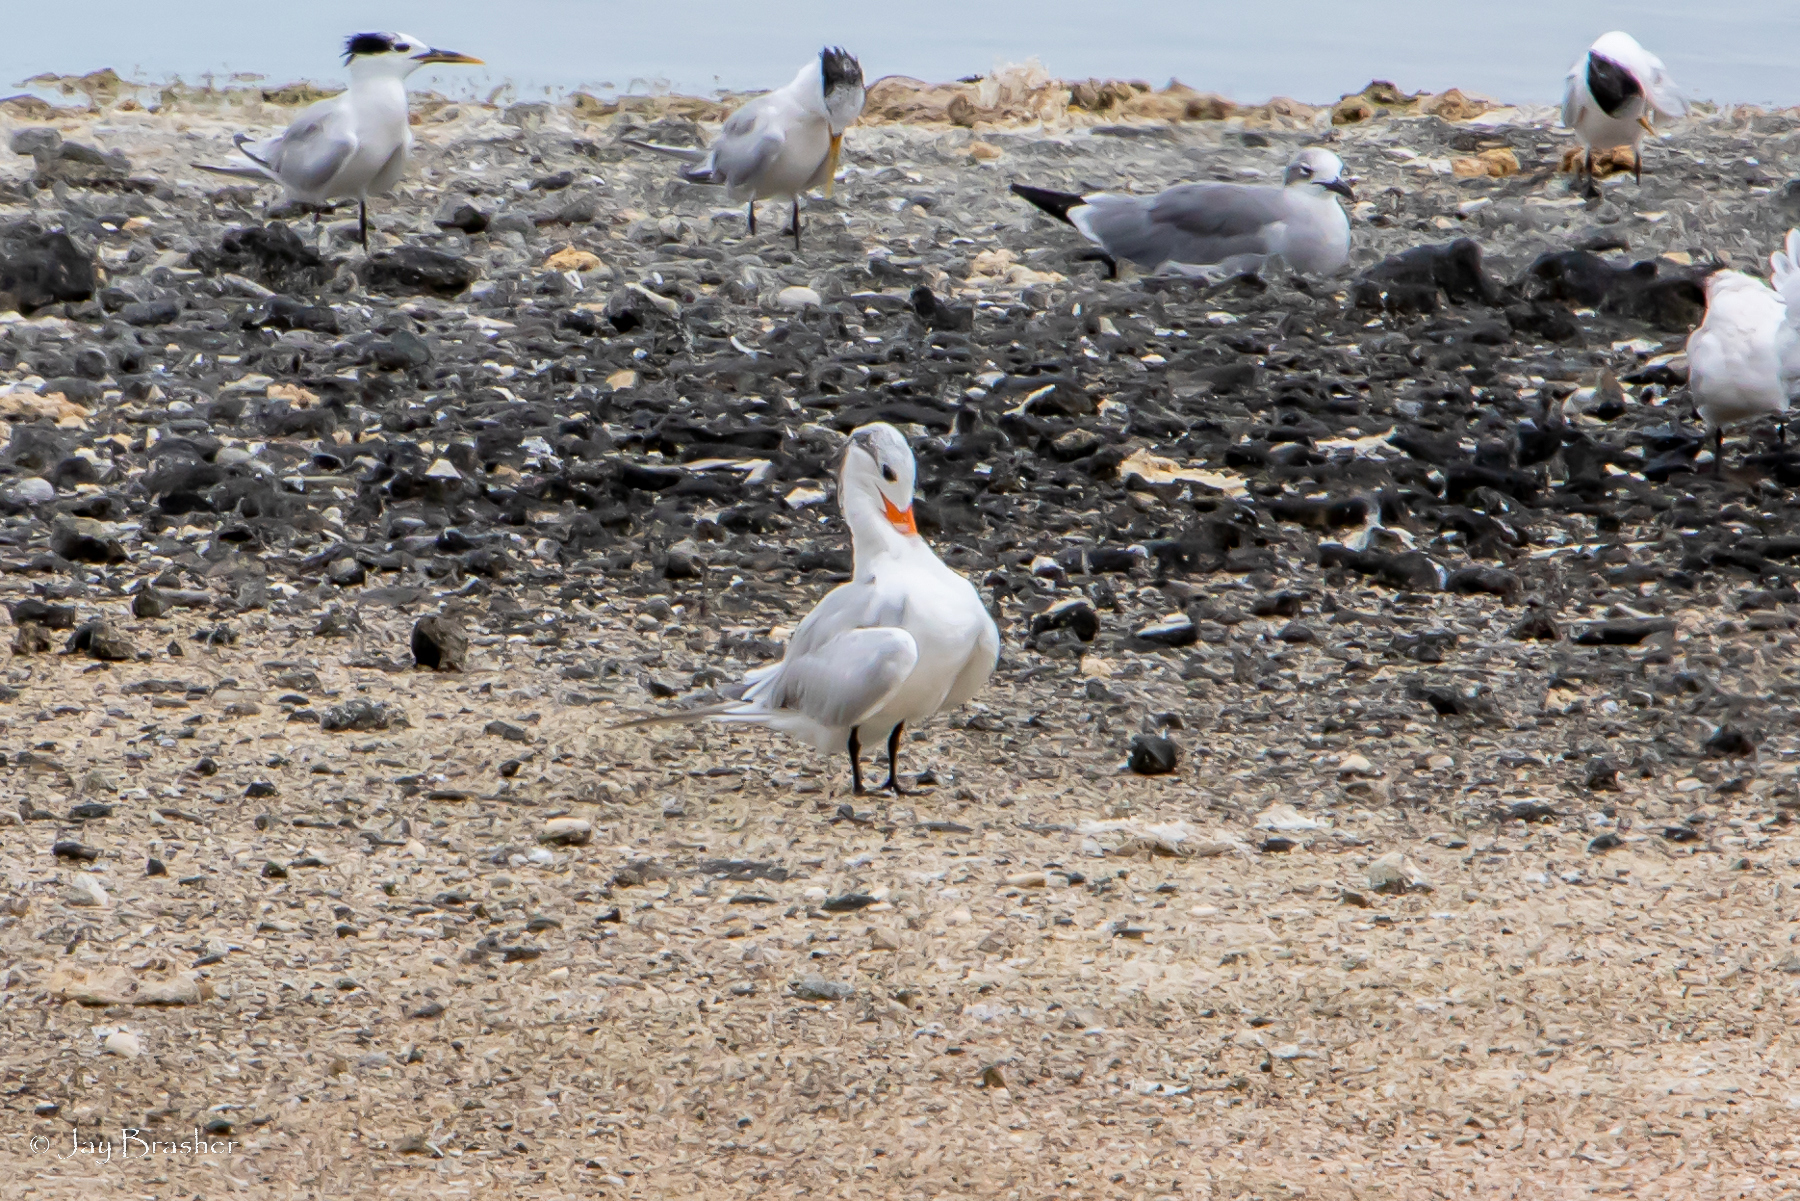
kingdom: Animalia
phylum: Chordata
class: Aves
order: Charadriiformes
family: Laridae
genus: Thalasseus
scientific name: Thalasseus maximus
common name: Royal tern
